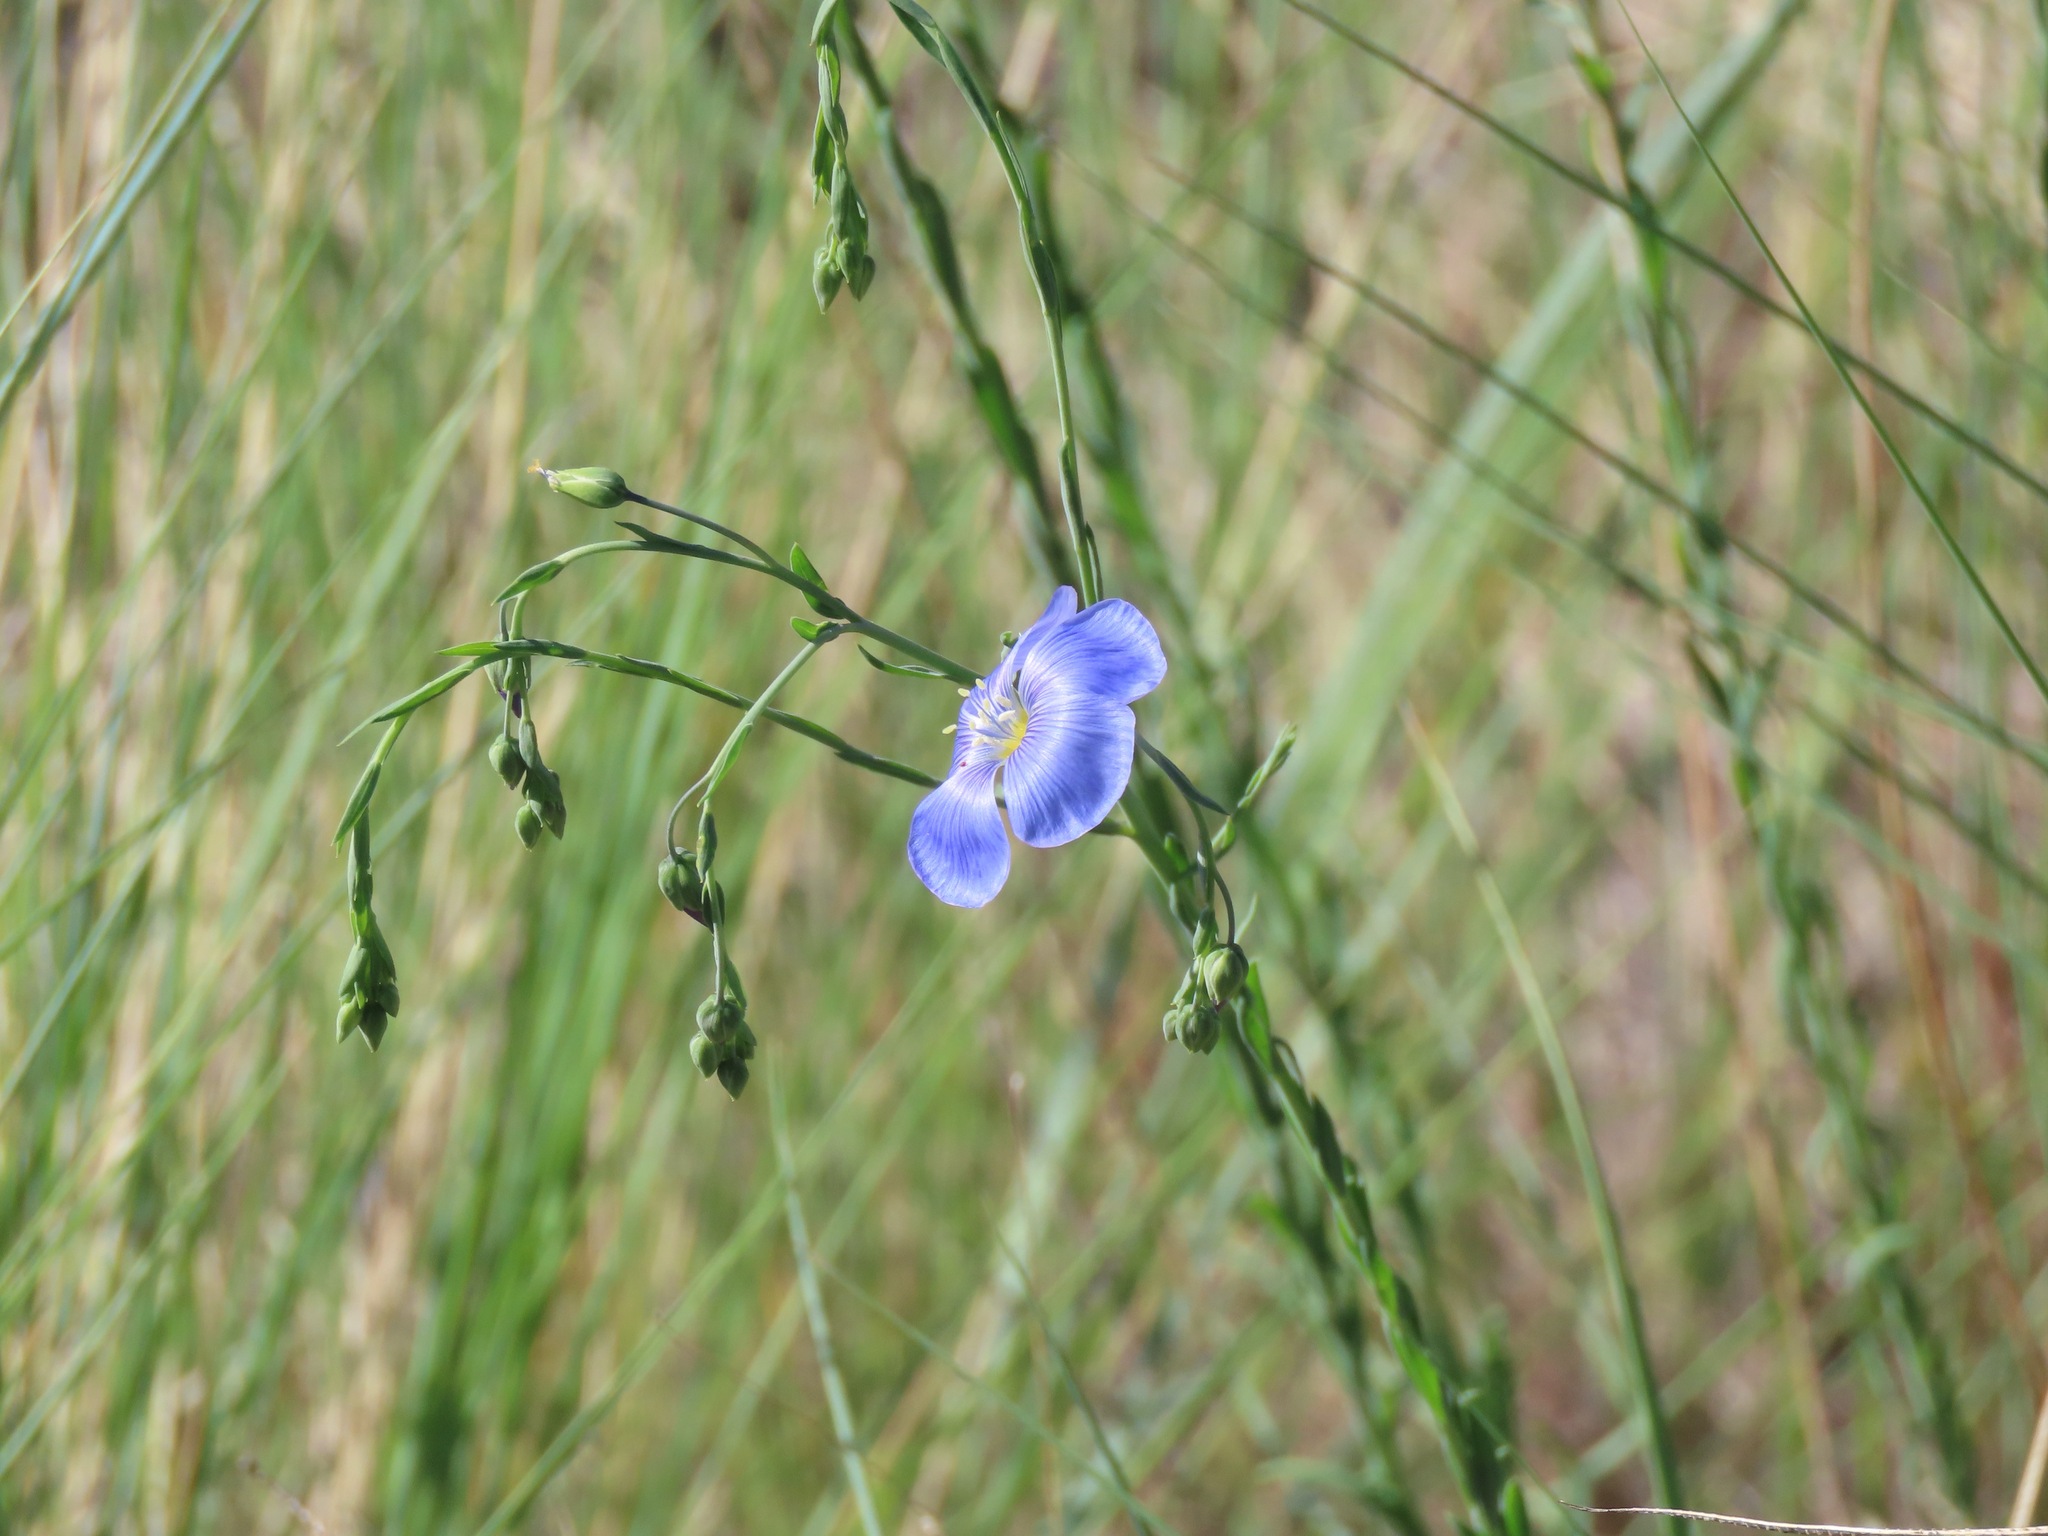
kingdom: Plantae
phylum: Tracheophyta
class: Magnoliopsida
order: Malpighiales
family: Linaceae
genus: Linum
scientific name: Linum lewisii
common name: Prairie flax
